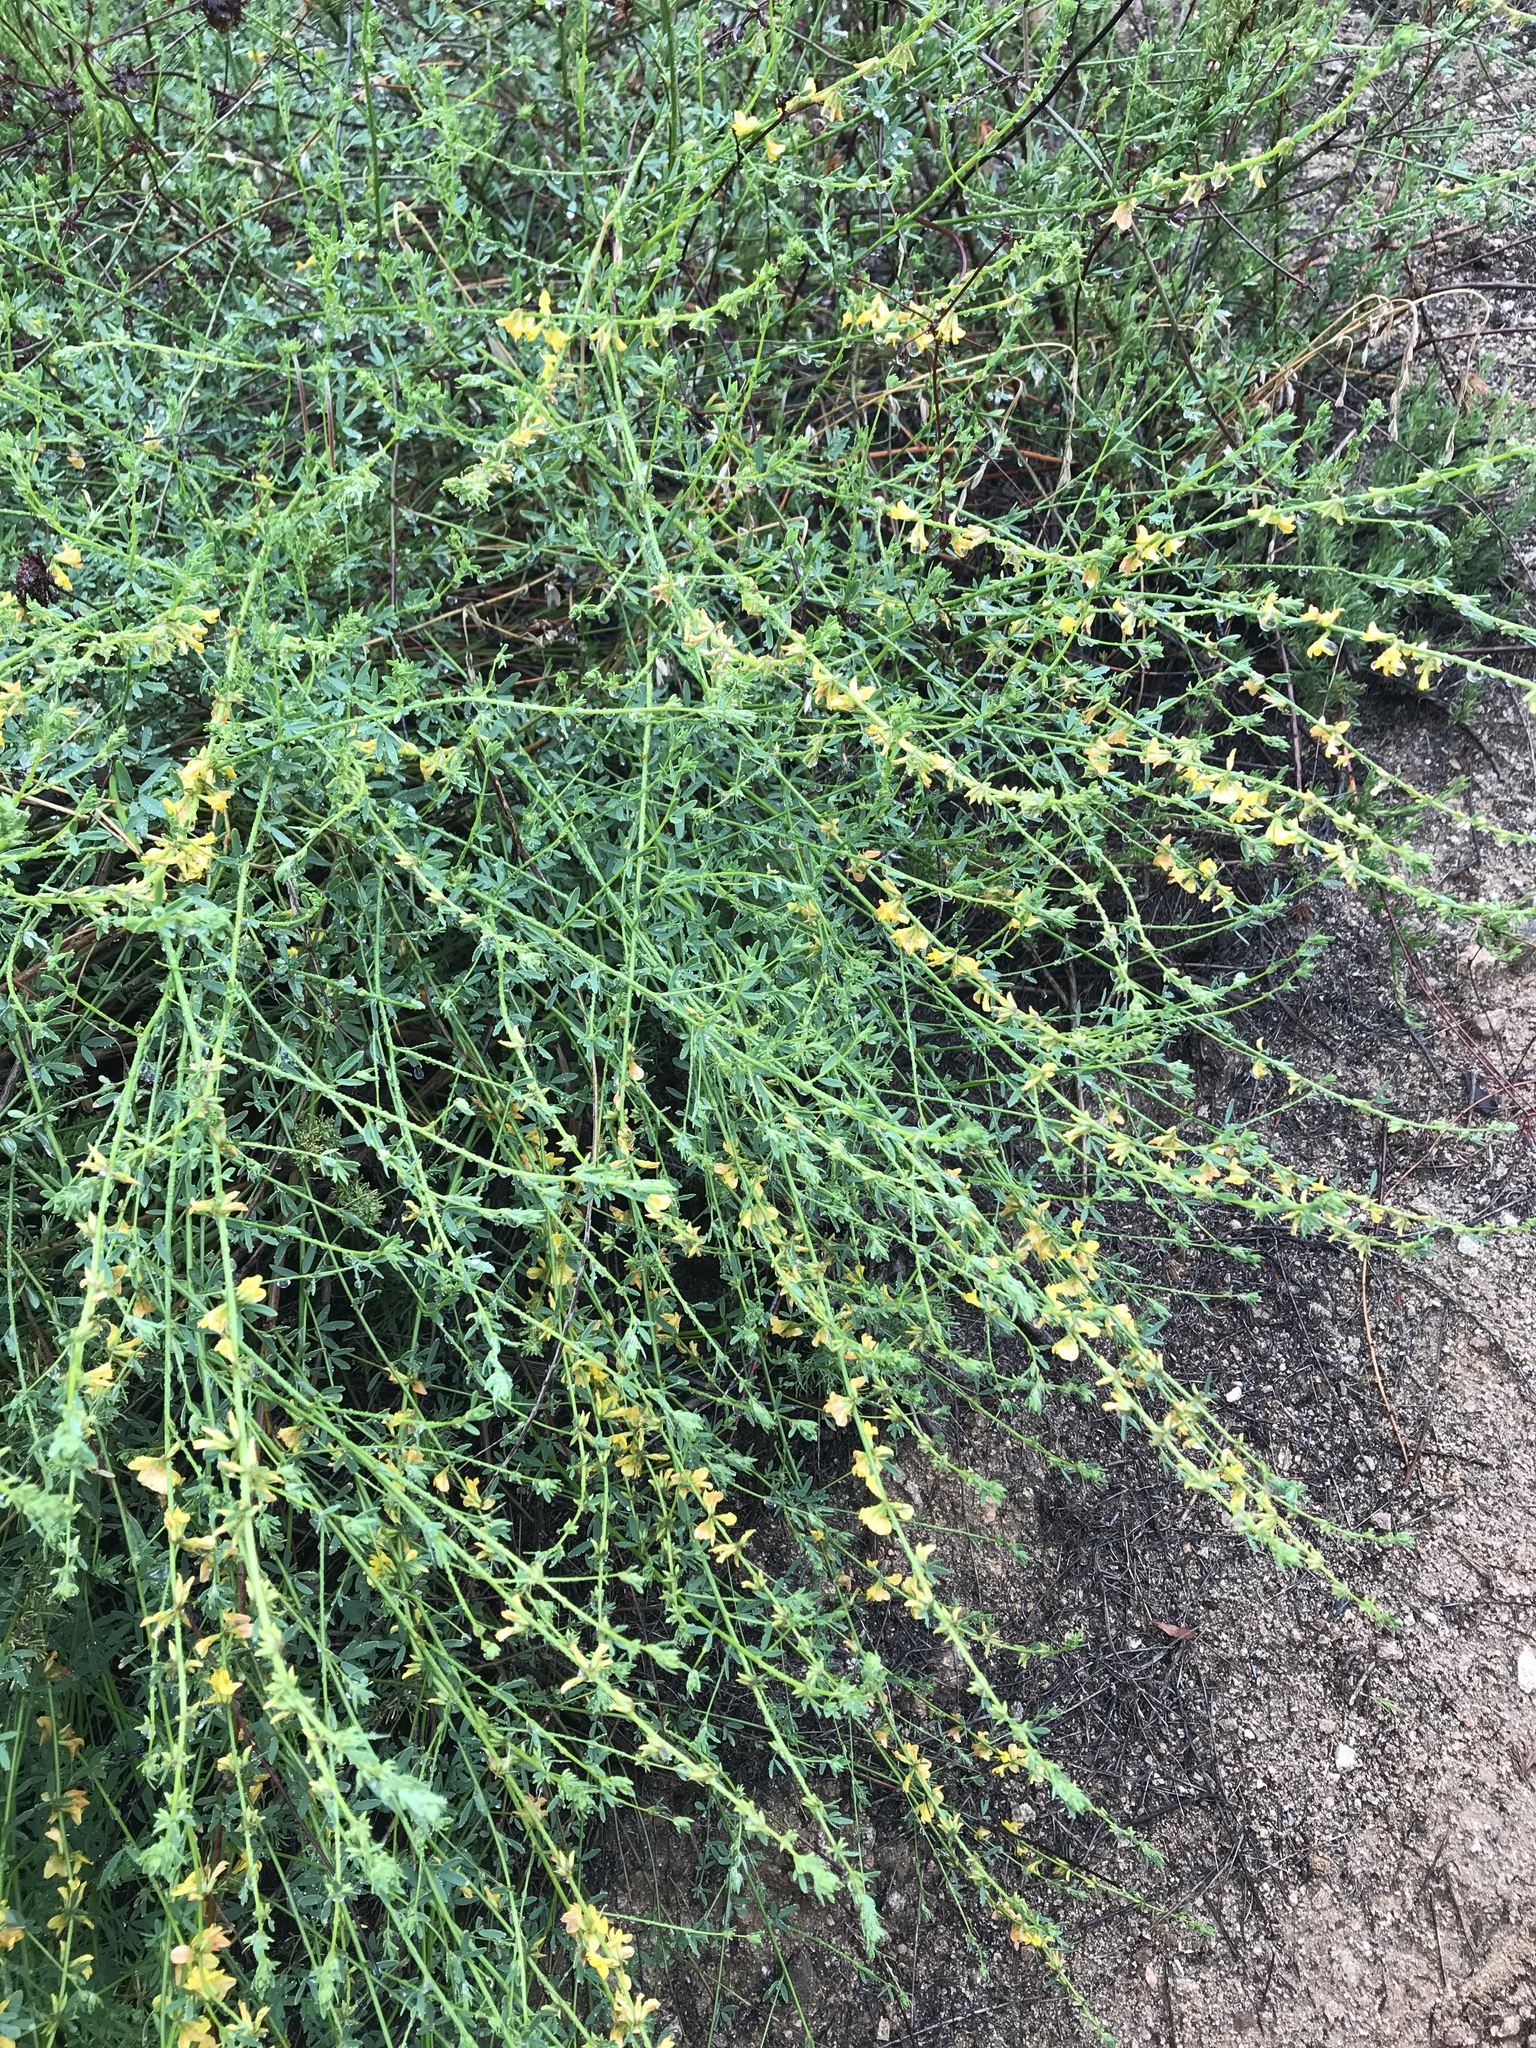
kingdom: Plantae
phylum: Tracheophyta
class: Magnoliopsida
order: Fabales
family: Fabaceae
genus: Acmispon
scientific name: Acmispon glaber
